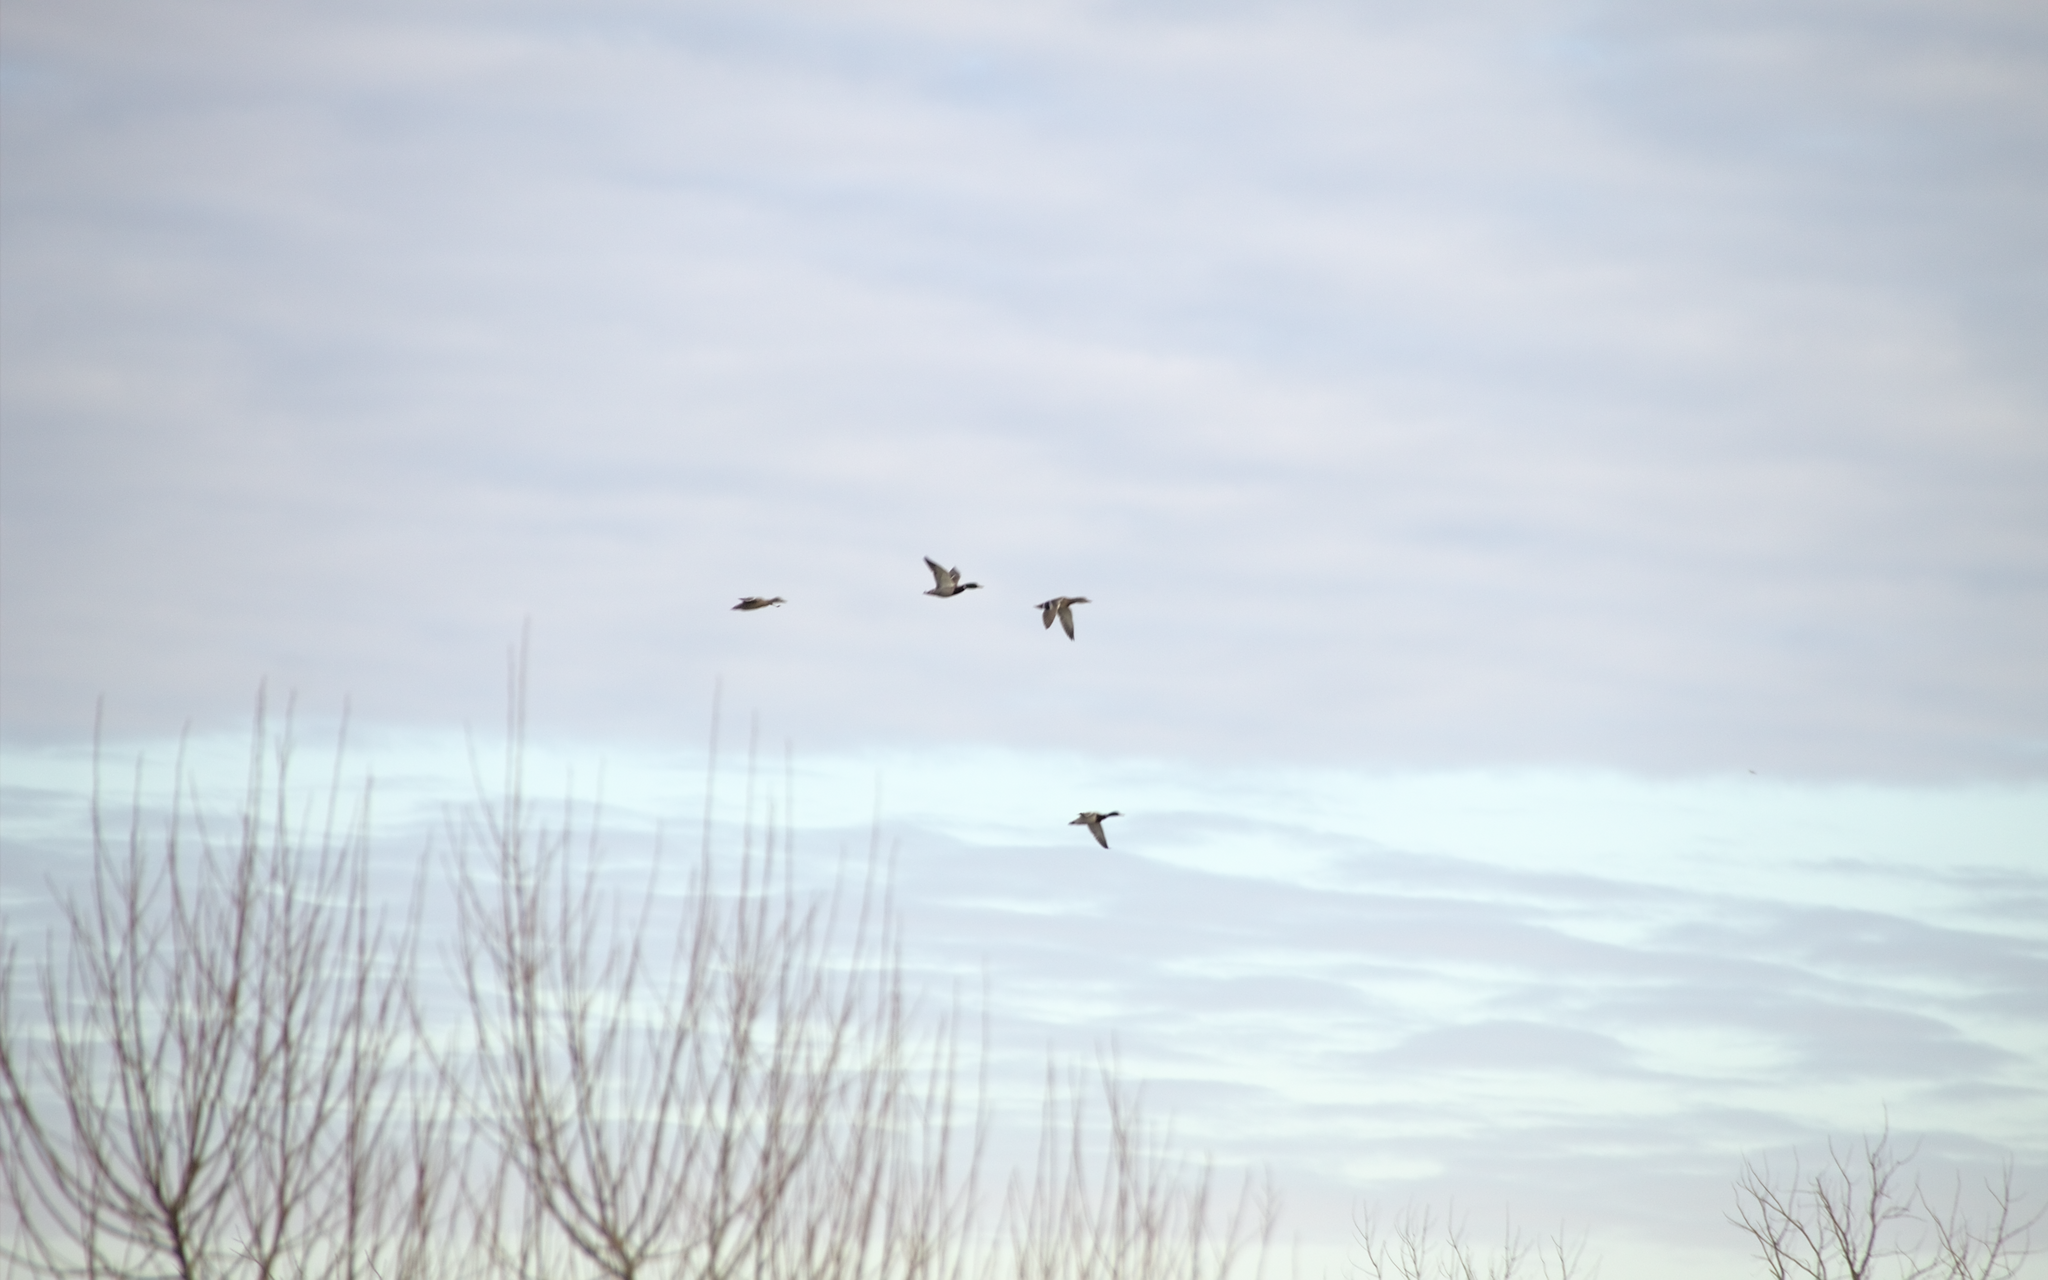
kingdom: Animalia
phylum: Chordata
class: Aves
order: Anseriformes
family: Anatidae
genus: Anas
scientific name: Anas platyrhynchos
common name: Mallard
